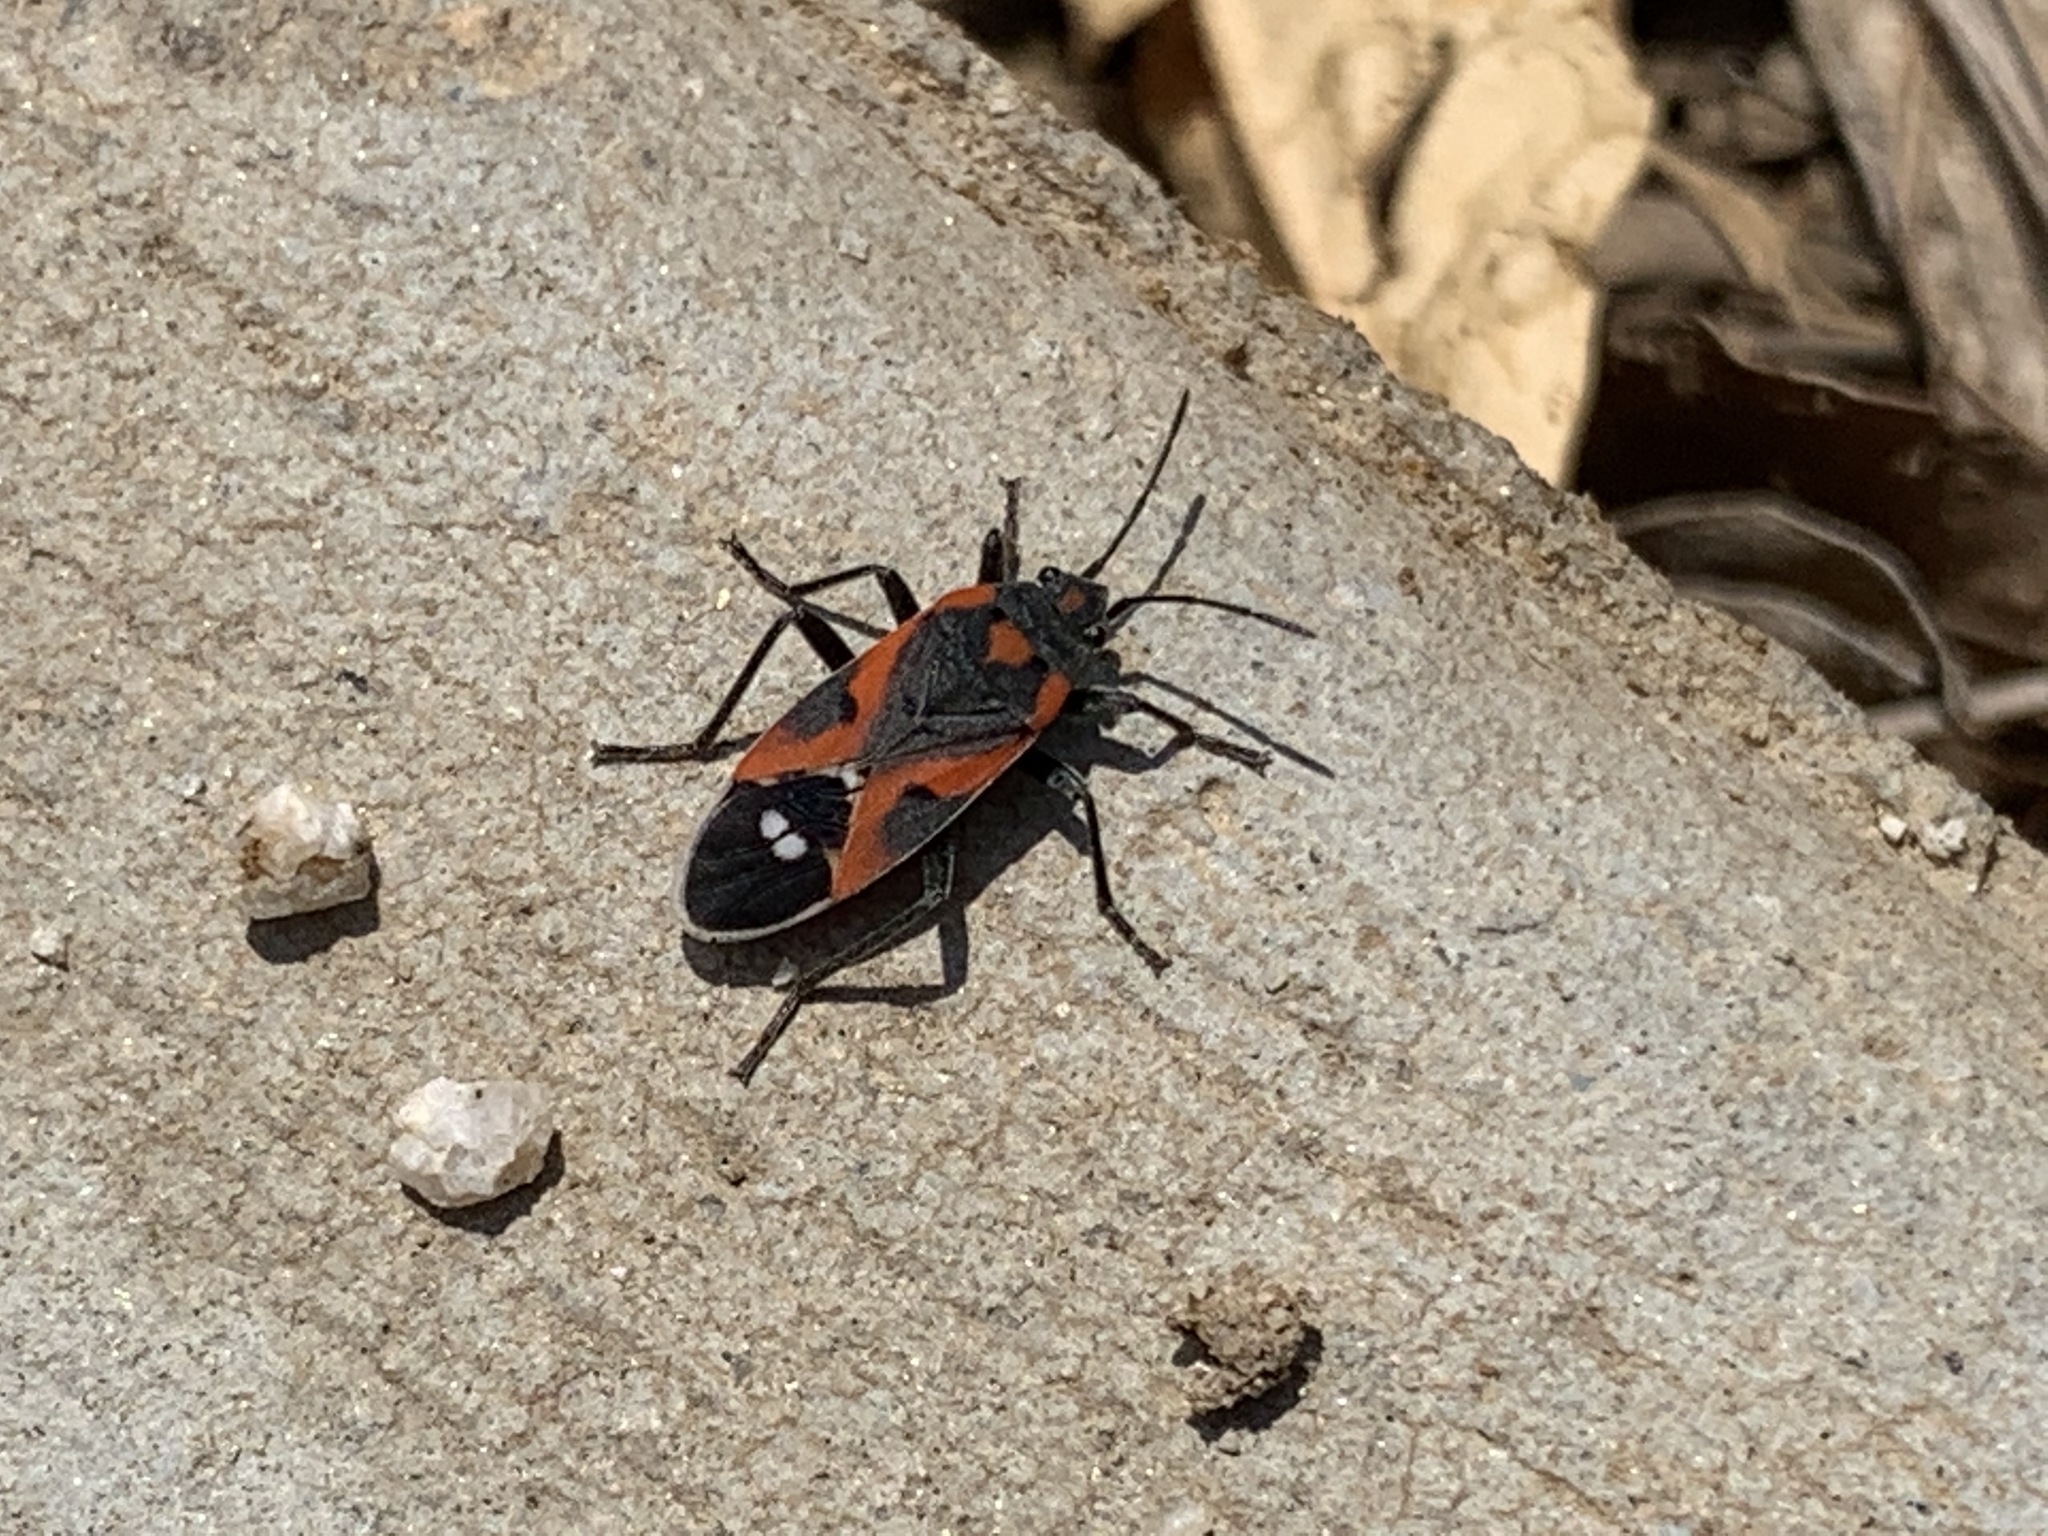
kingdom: Animalia
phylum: Arthropoda
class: Insecta
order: Hemiptera
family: Lygaeidae
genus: Lygaeus
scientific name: Lygaeus kalmii
